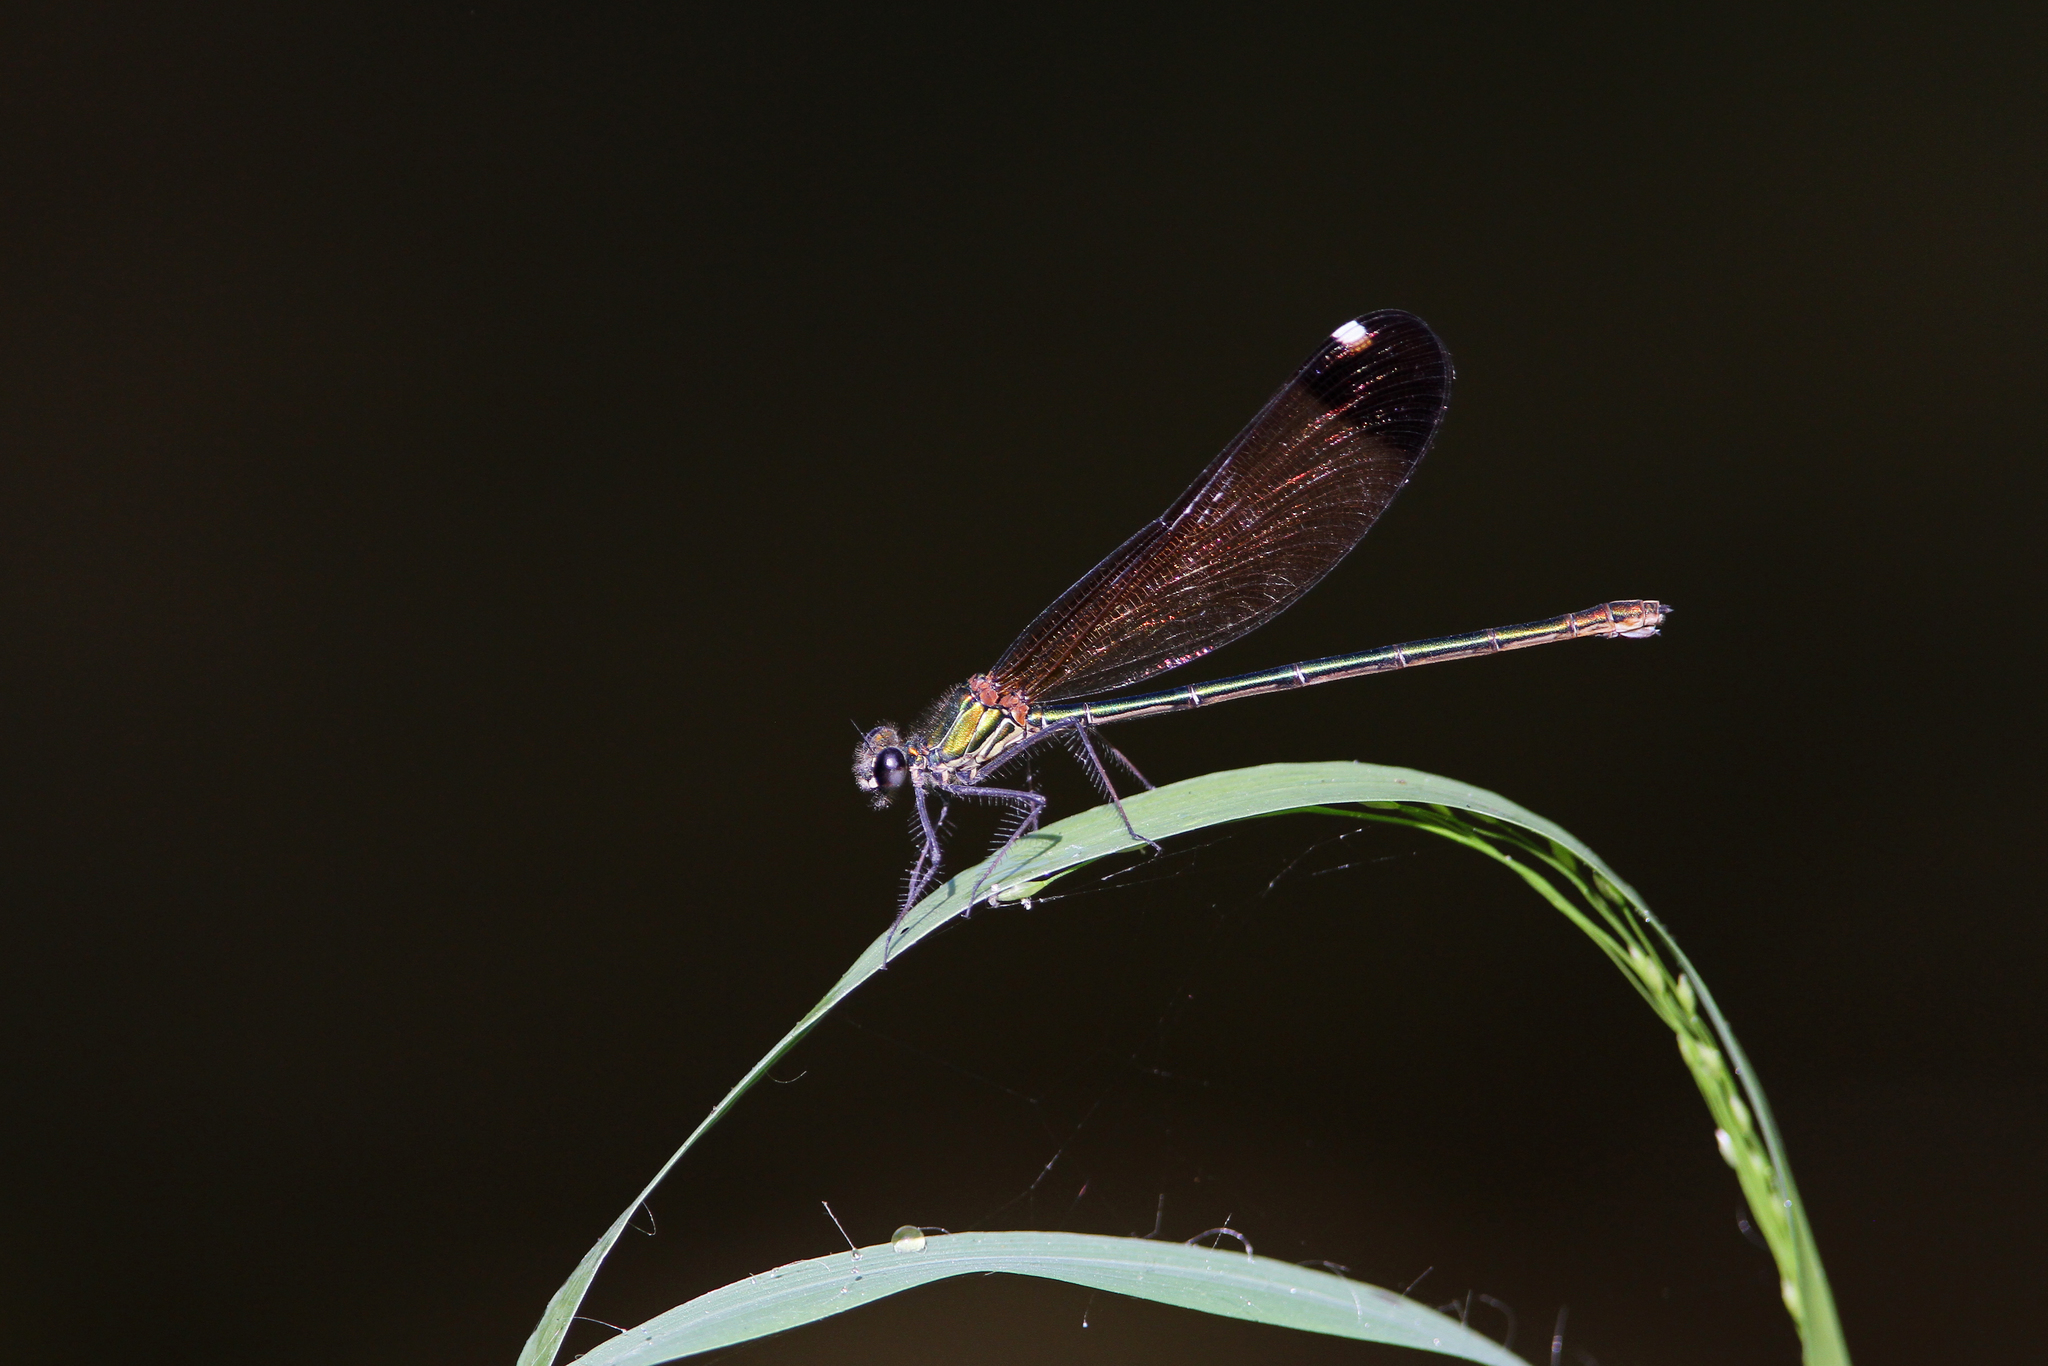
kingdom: Animalia
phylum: Arthropoda
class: Insecta
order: Odonata
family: Calopterygidae
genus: Calopteryx
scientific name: Calopteryx haemorrhoidalis
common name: Copper demoiselle
